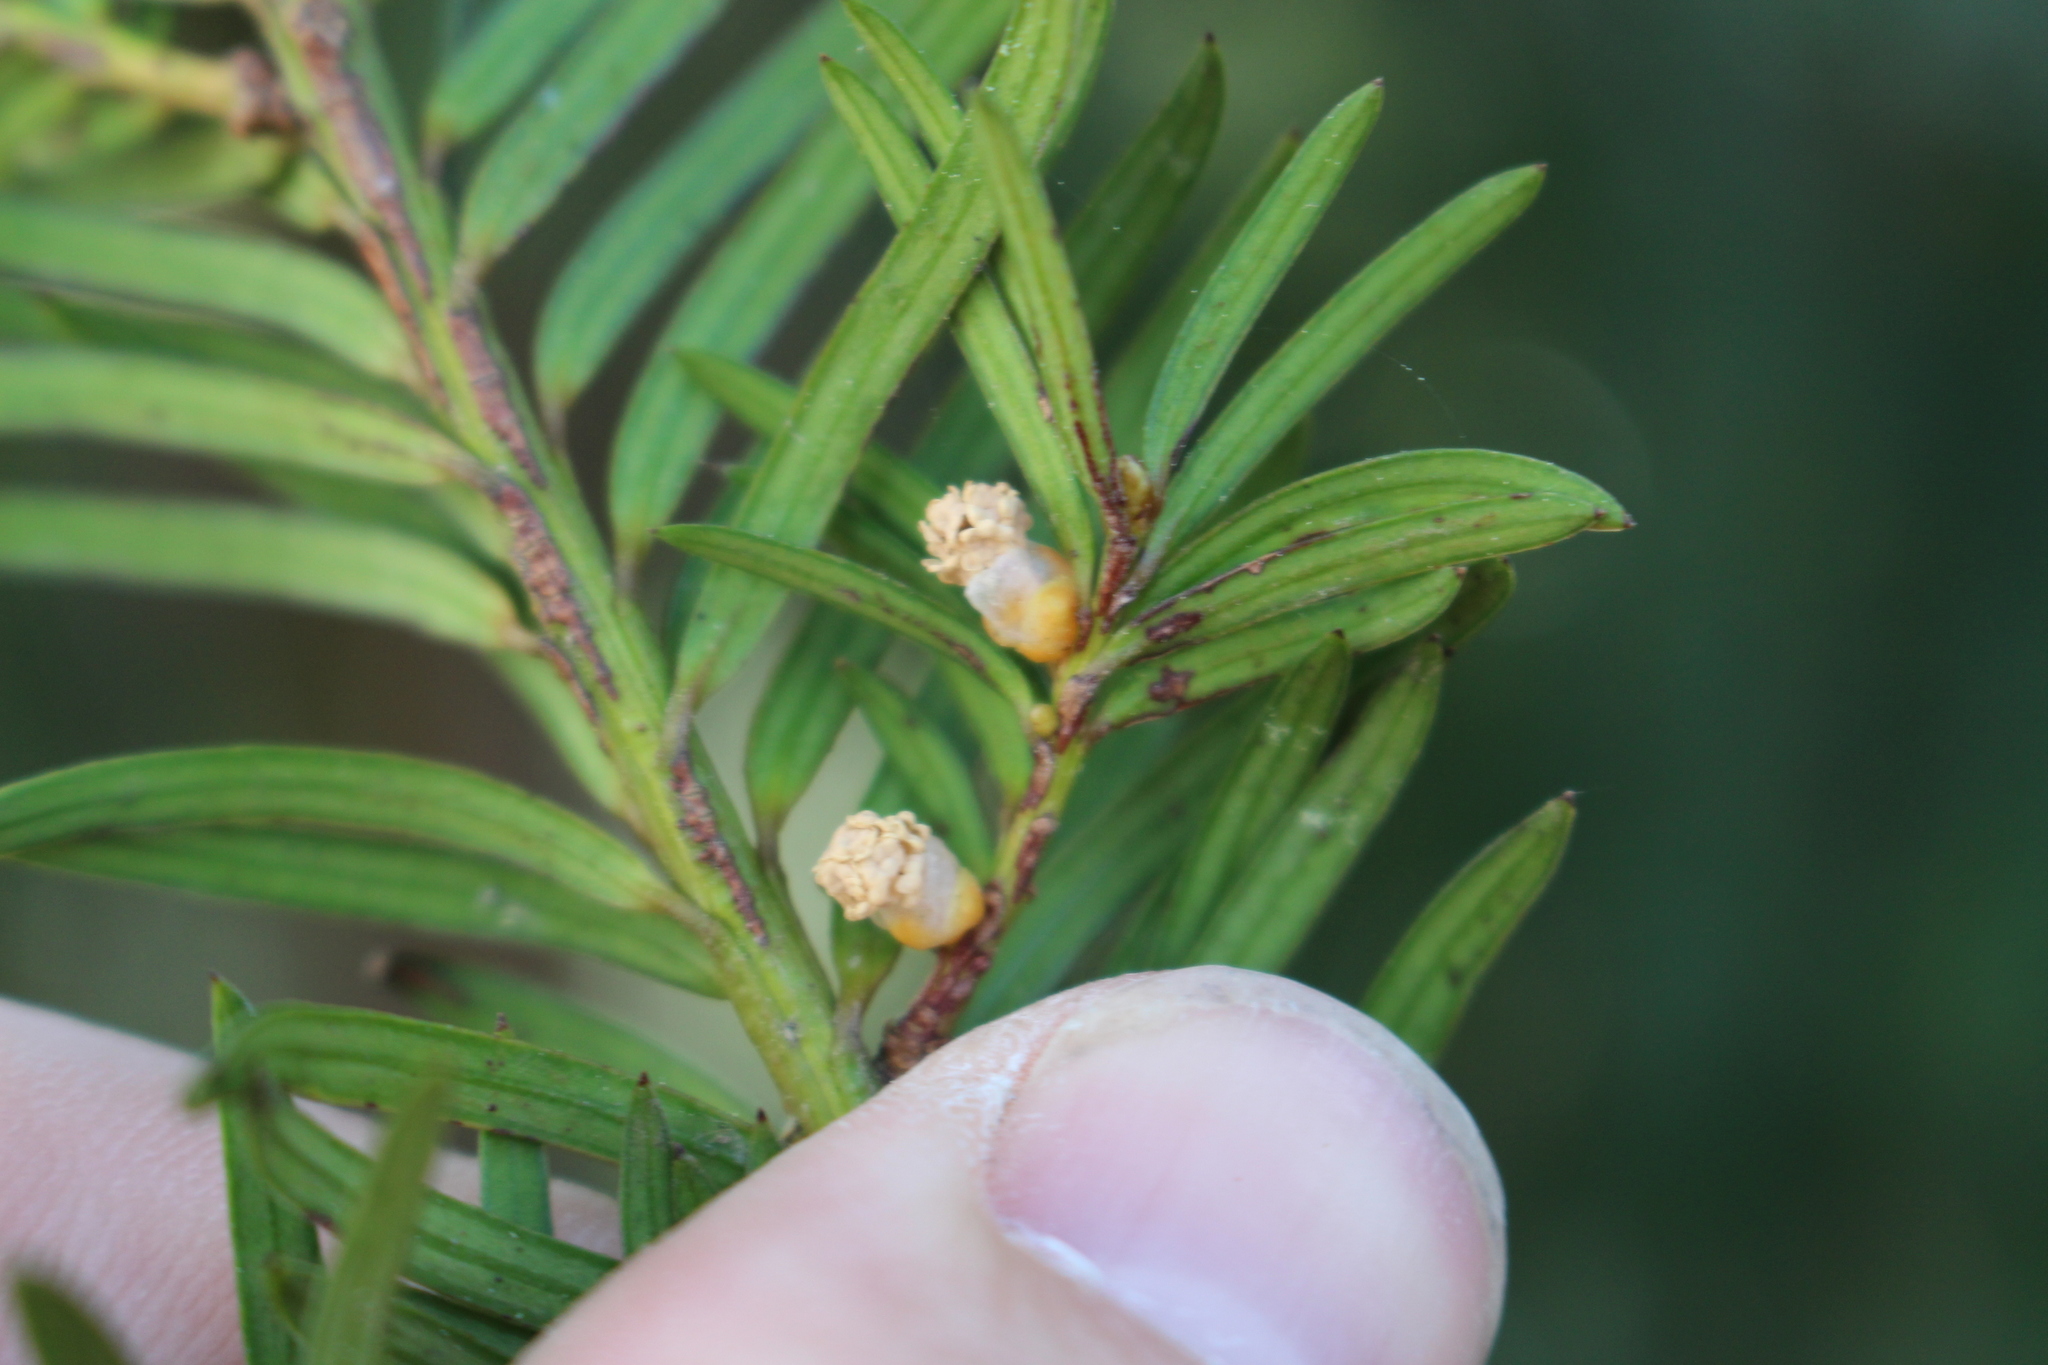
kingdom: Plantae
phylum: Tracheophyta
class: Pinopsida
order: Pinales
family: Taxaceae
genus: Taxus
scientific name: Taxus baccata
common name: Yew
